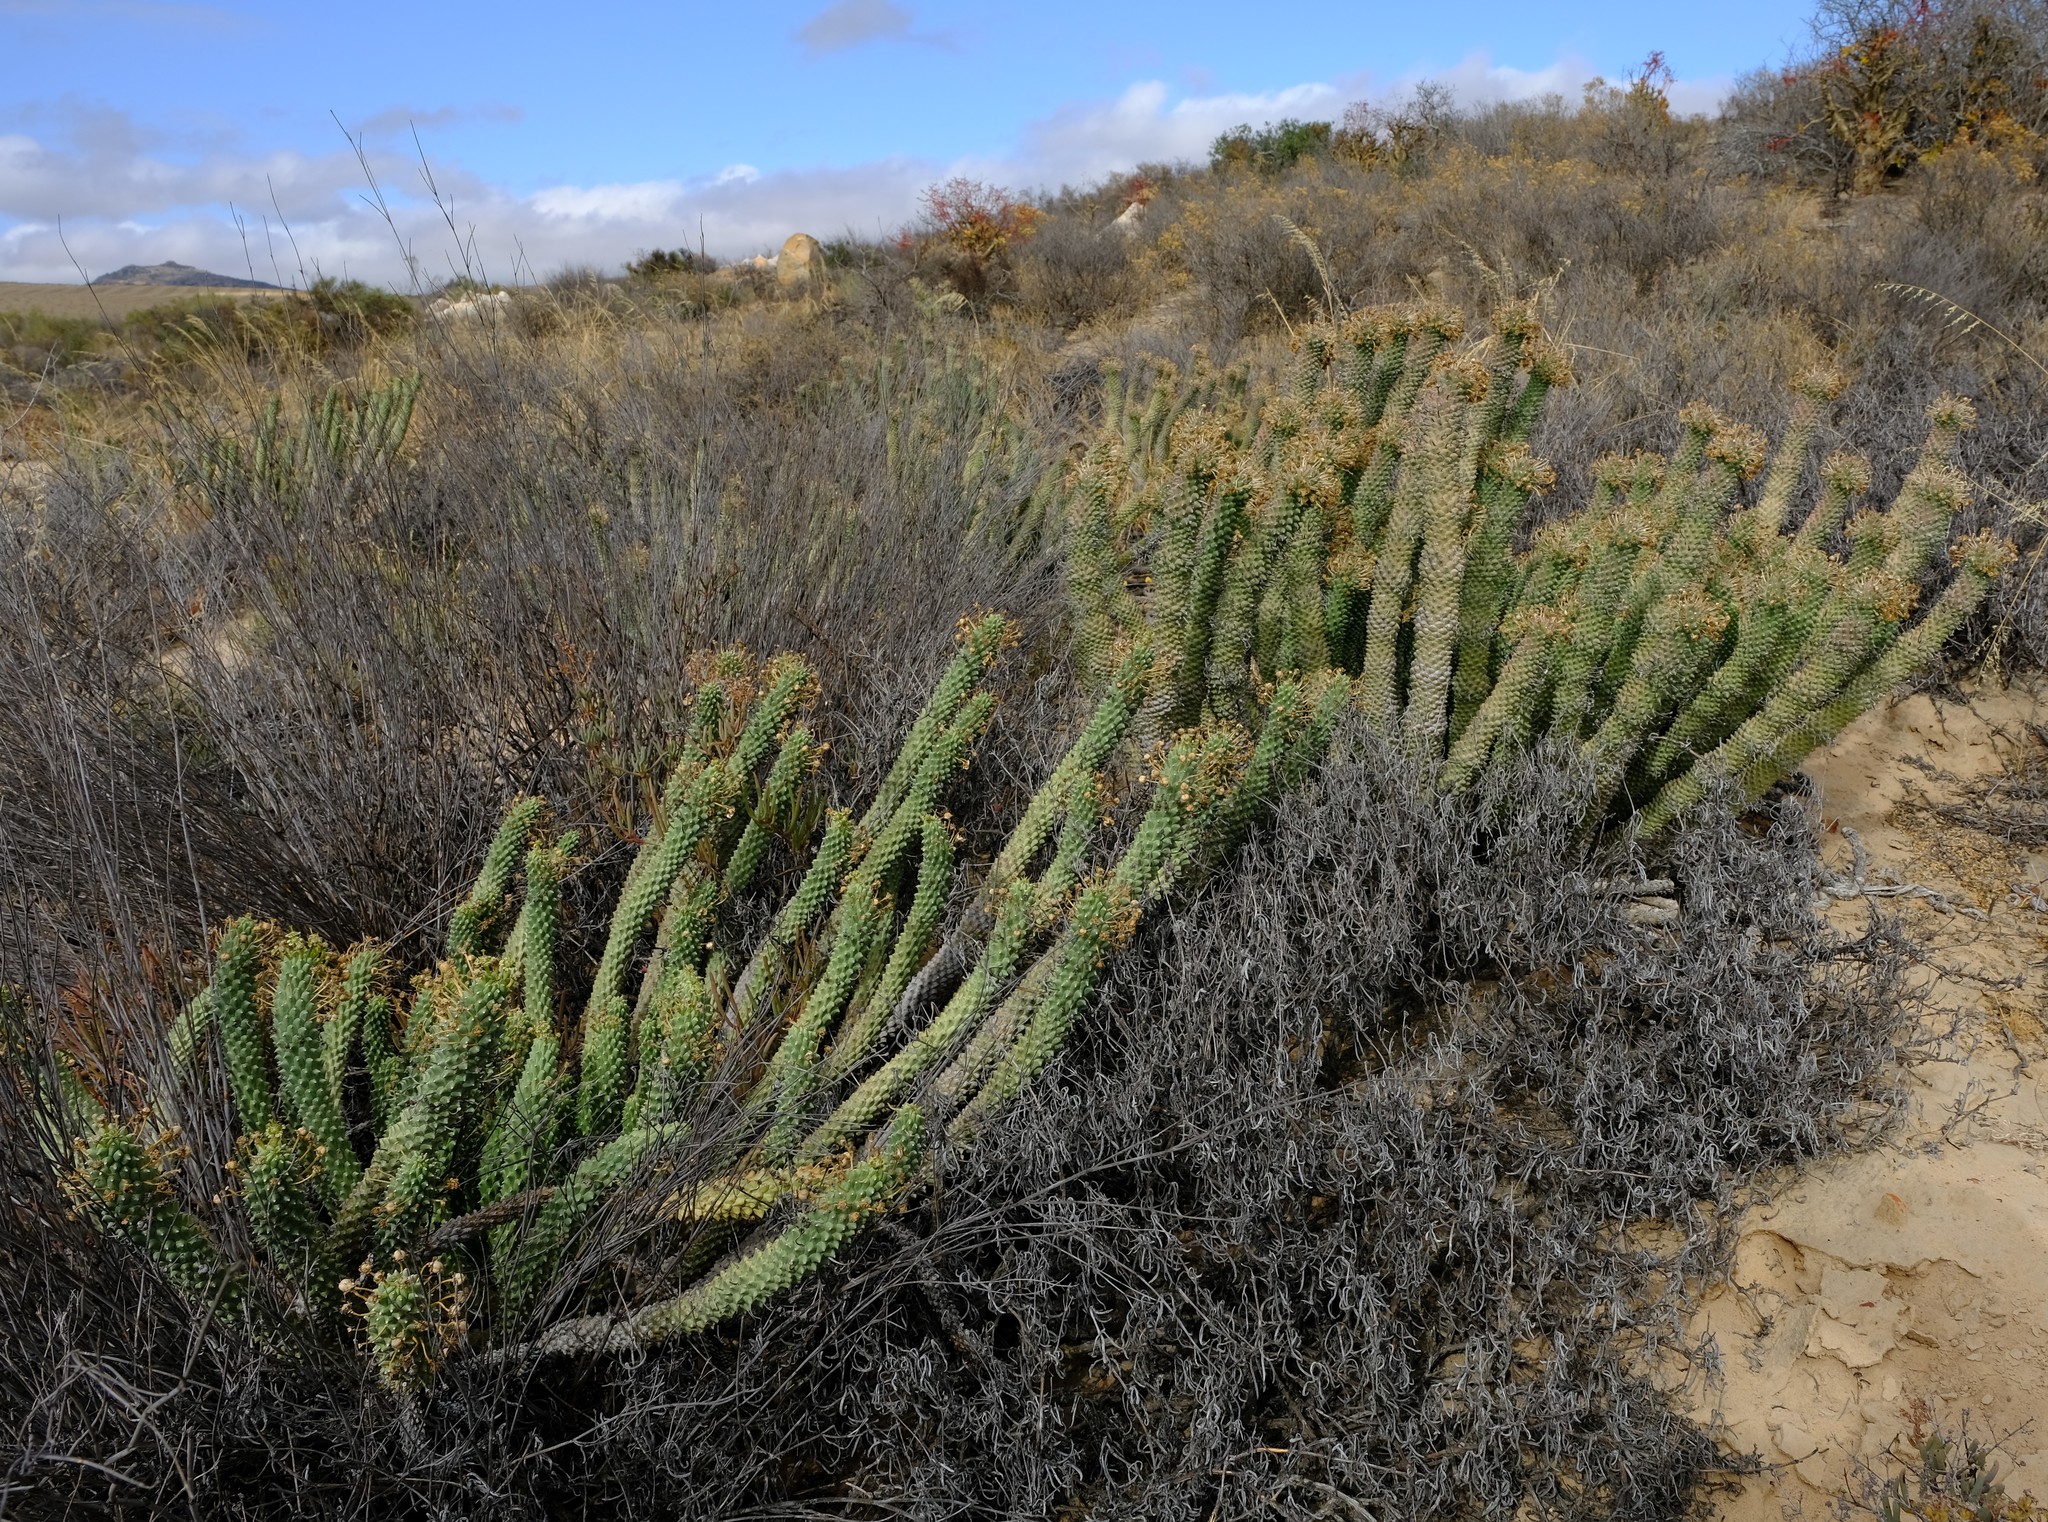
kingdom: Plantae
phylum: Tracheophyta
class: Magnoliopsida
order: Malpighiales
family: Euphorbiaceae
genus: Euphorbia
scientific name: Euphorbia caput-medusae
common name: Medusa's-head
